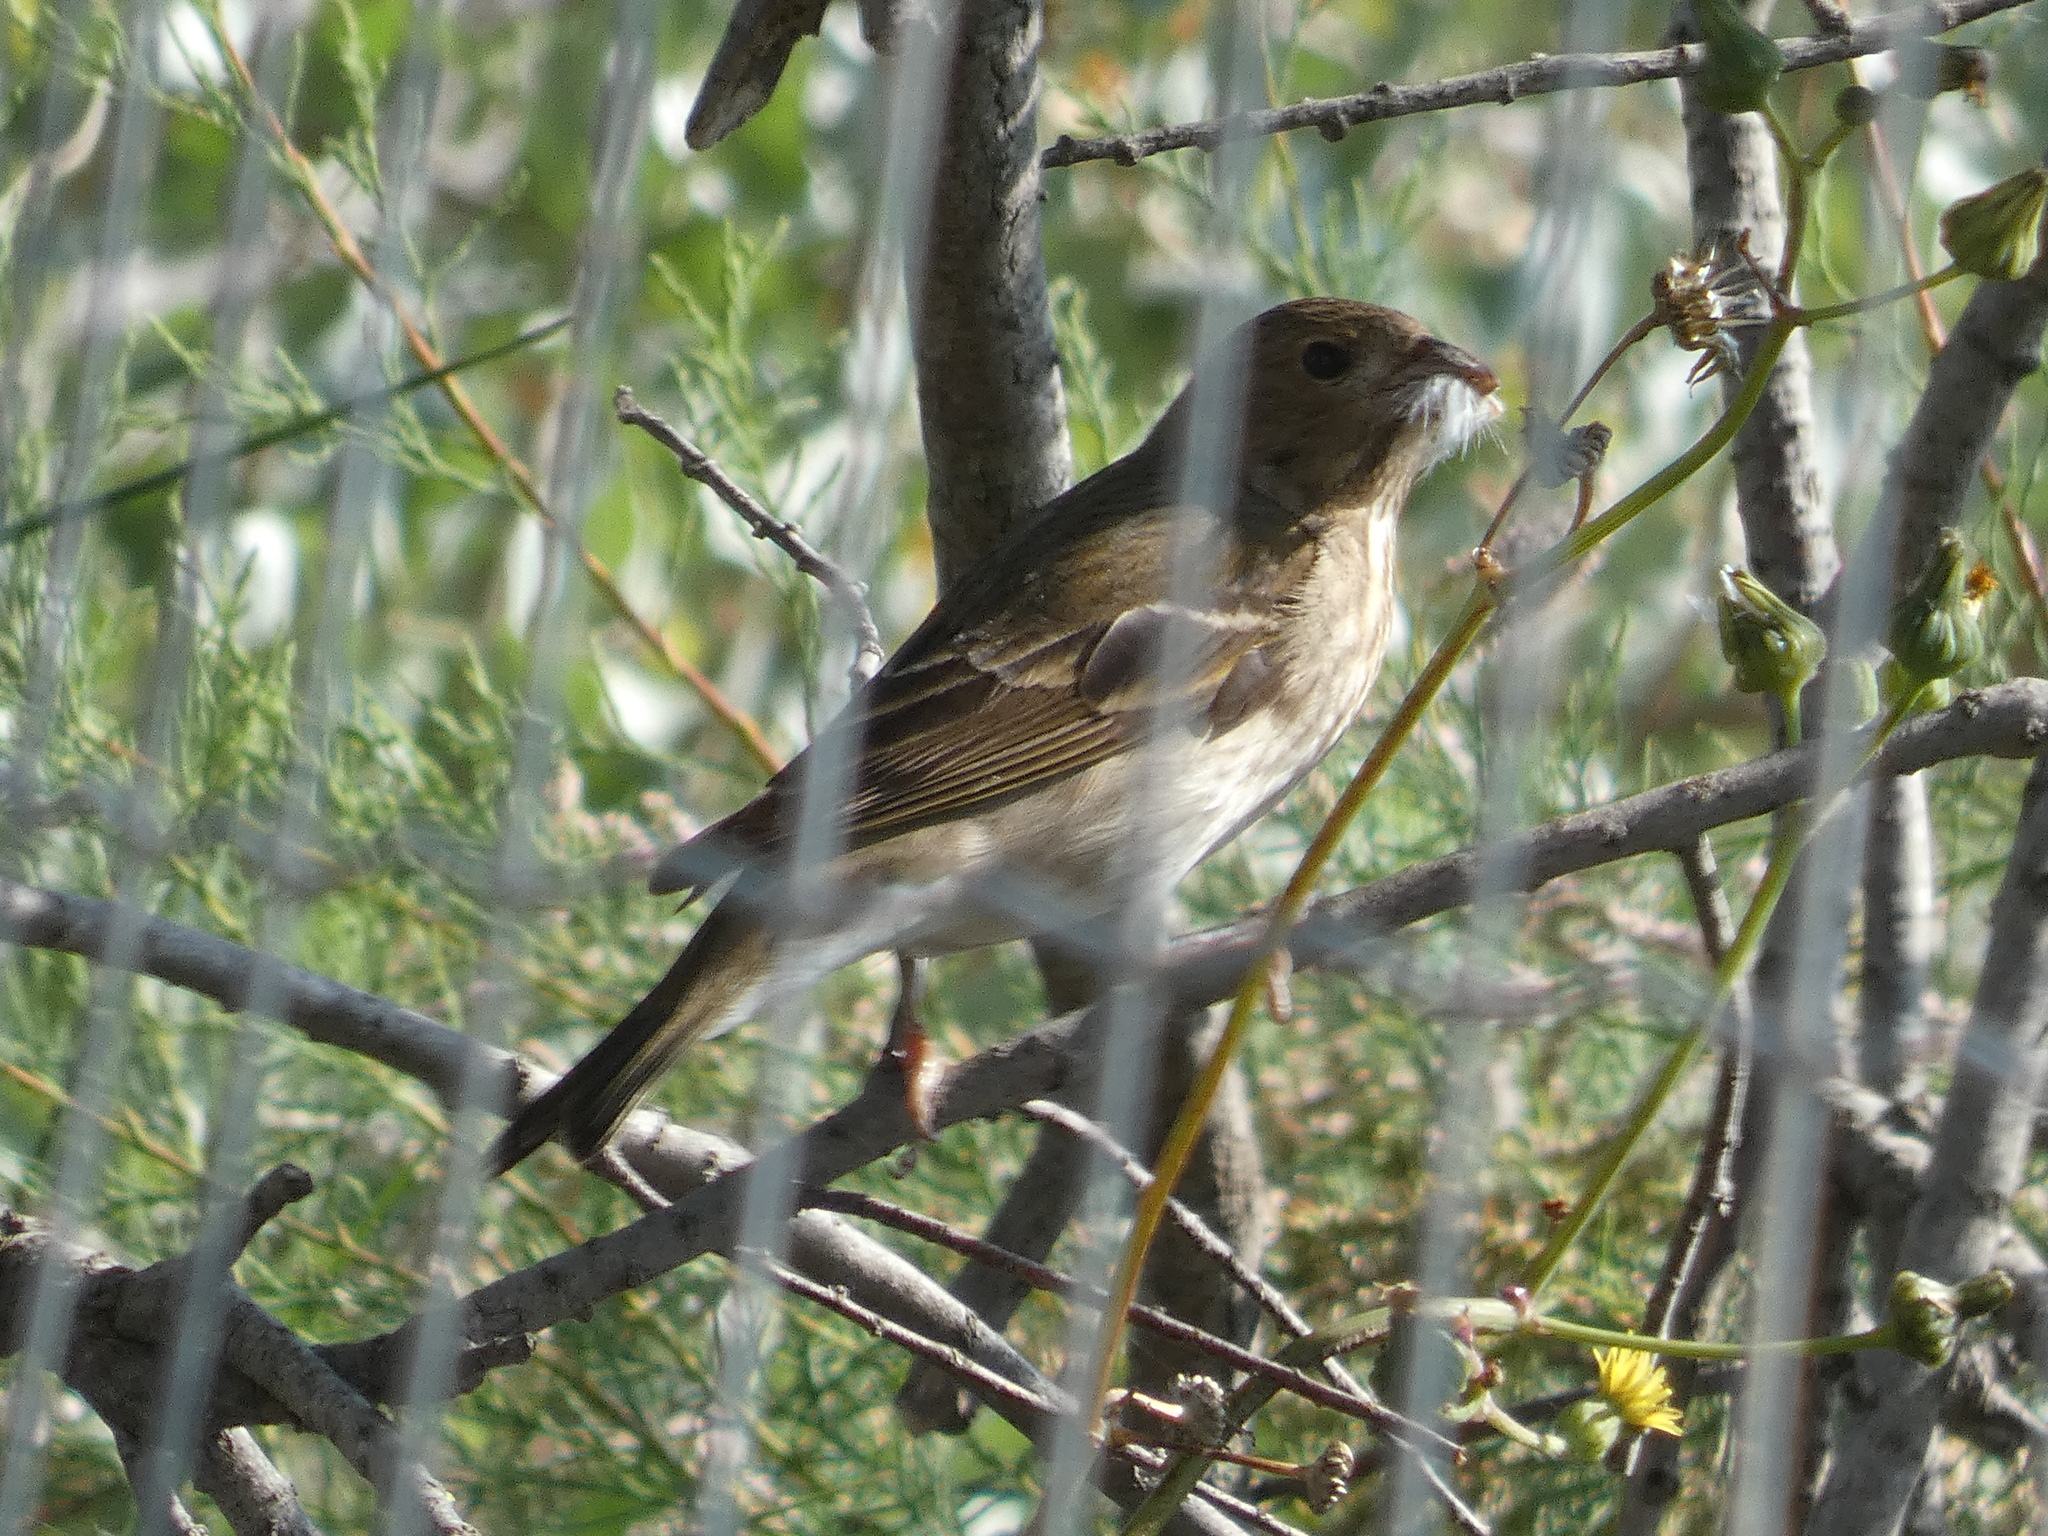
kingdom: Animalia
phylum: Chordata
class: Aves
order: Passeriformes
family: Fringillidae
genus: Carpodacus
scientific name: Carpodacus erythrinus
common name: Common rosefinch
